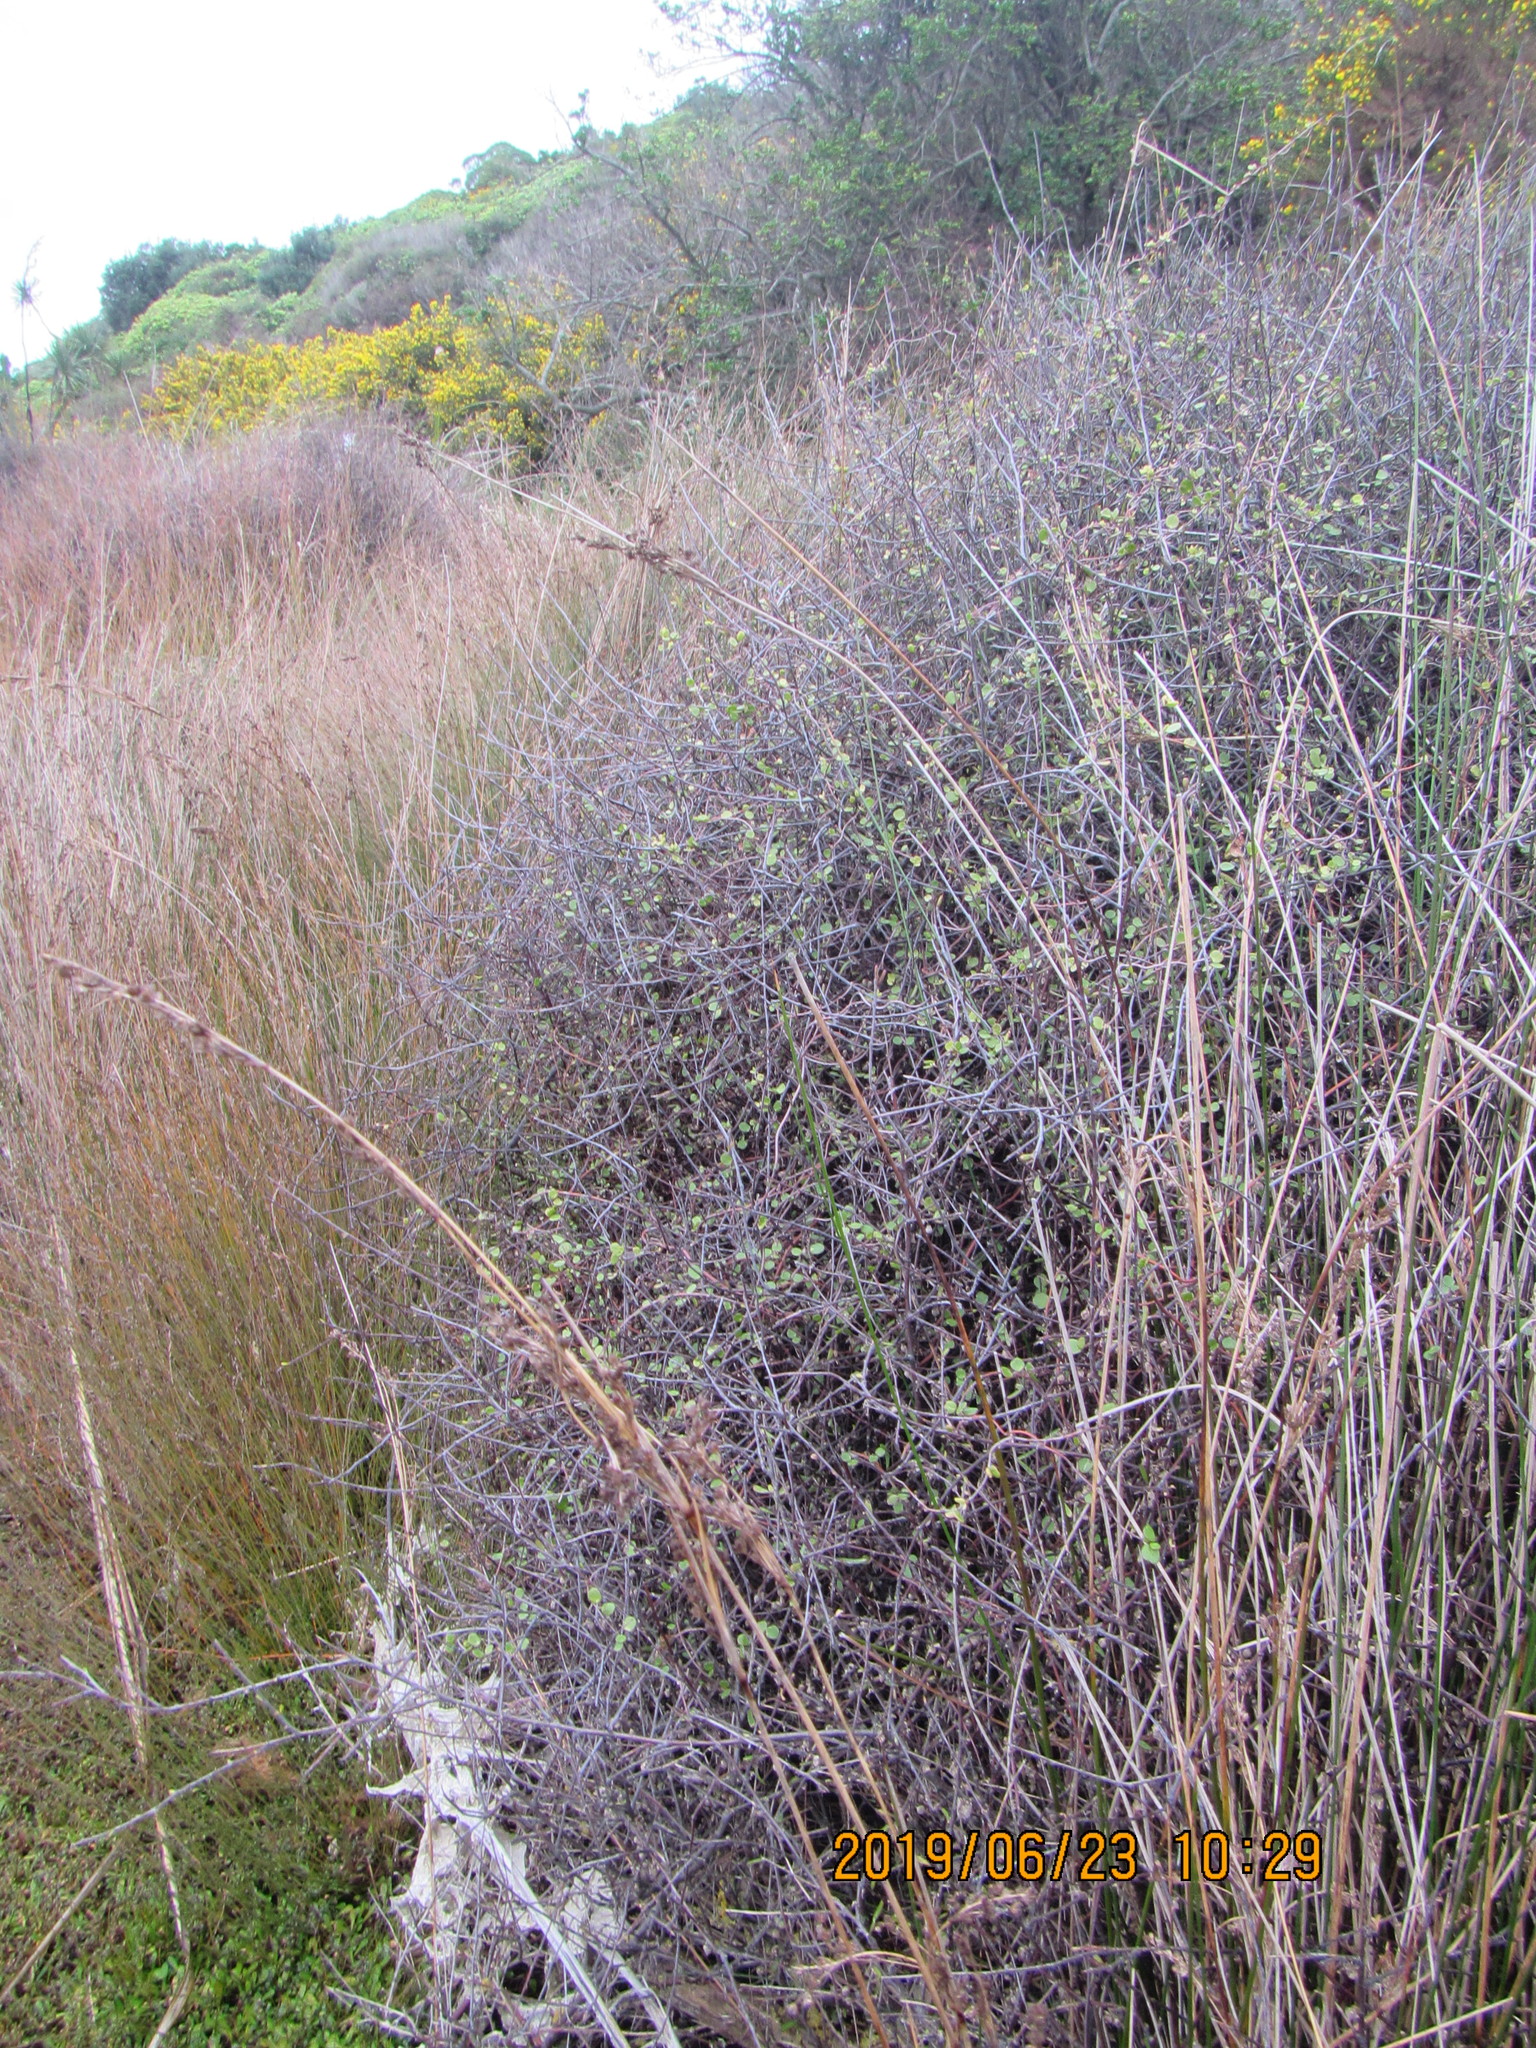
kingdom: Plantae
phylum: Tracheophyta
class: Magnoliopsida
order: Caryophyllales
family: Polygonaceae
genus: Muehlenbeckia
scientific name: Muehlenbeckia complexa
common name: Wireplant
